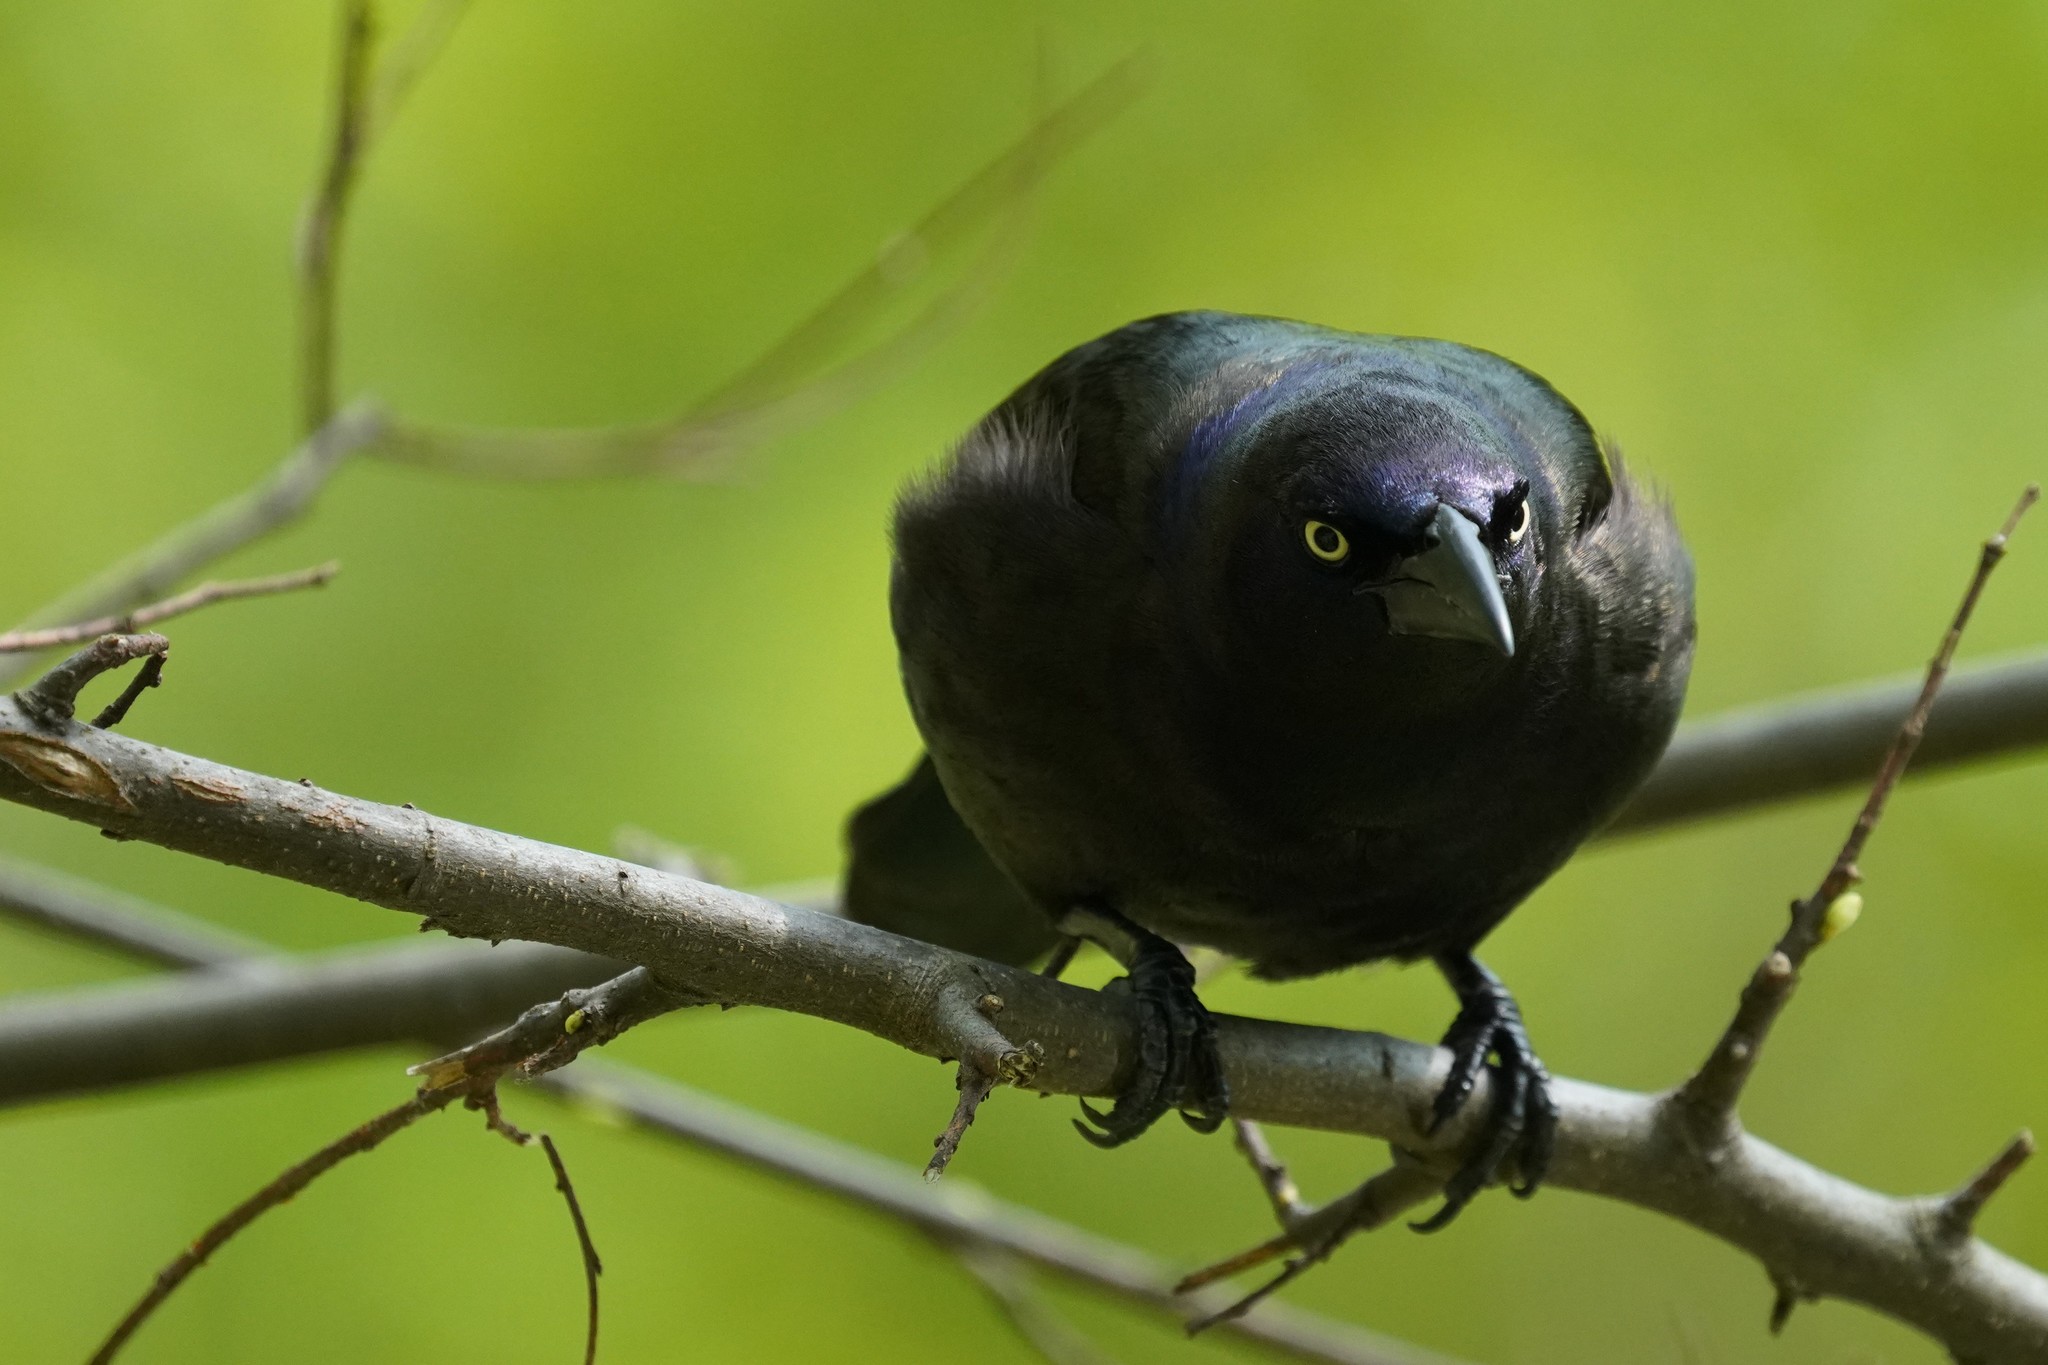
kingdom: Animalia
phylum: Chordata
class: Aves
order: Passeriformes
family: Icteridae
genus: Quiscalus
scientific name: Quiscalus quiscula
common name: Common grackle
